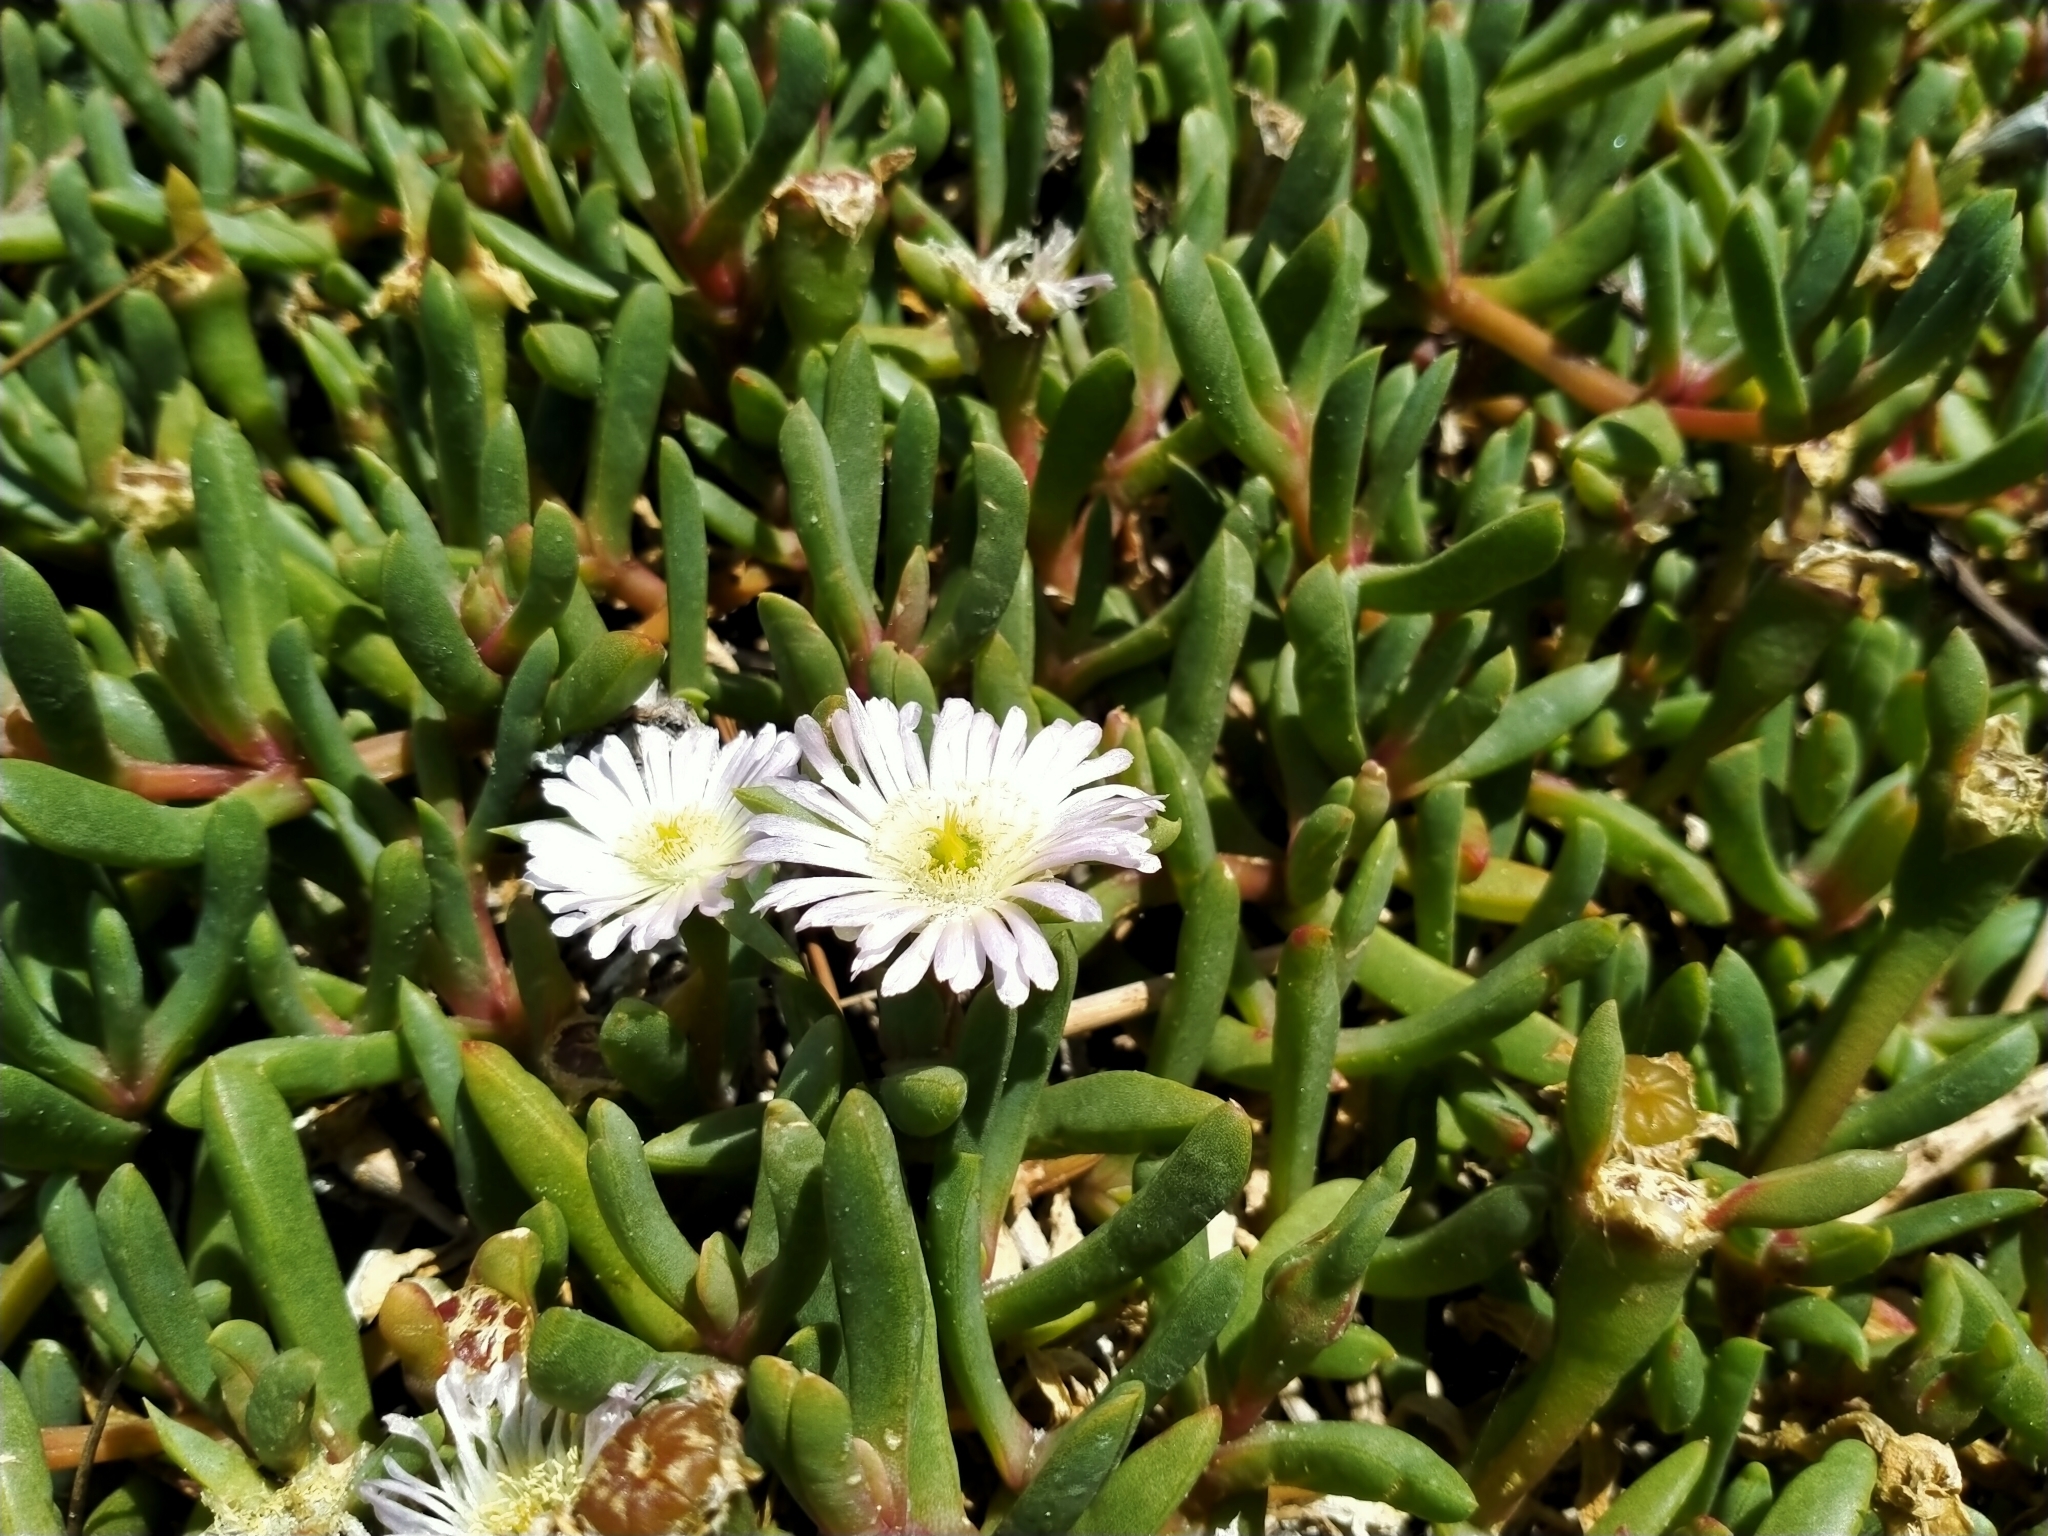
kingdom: Plantae
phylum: Tracheophyta
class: Magnoliopsida
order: Caryophyllales
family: Aizoaceae
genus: Disphyma
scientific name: Disphyma australe
